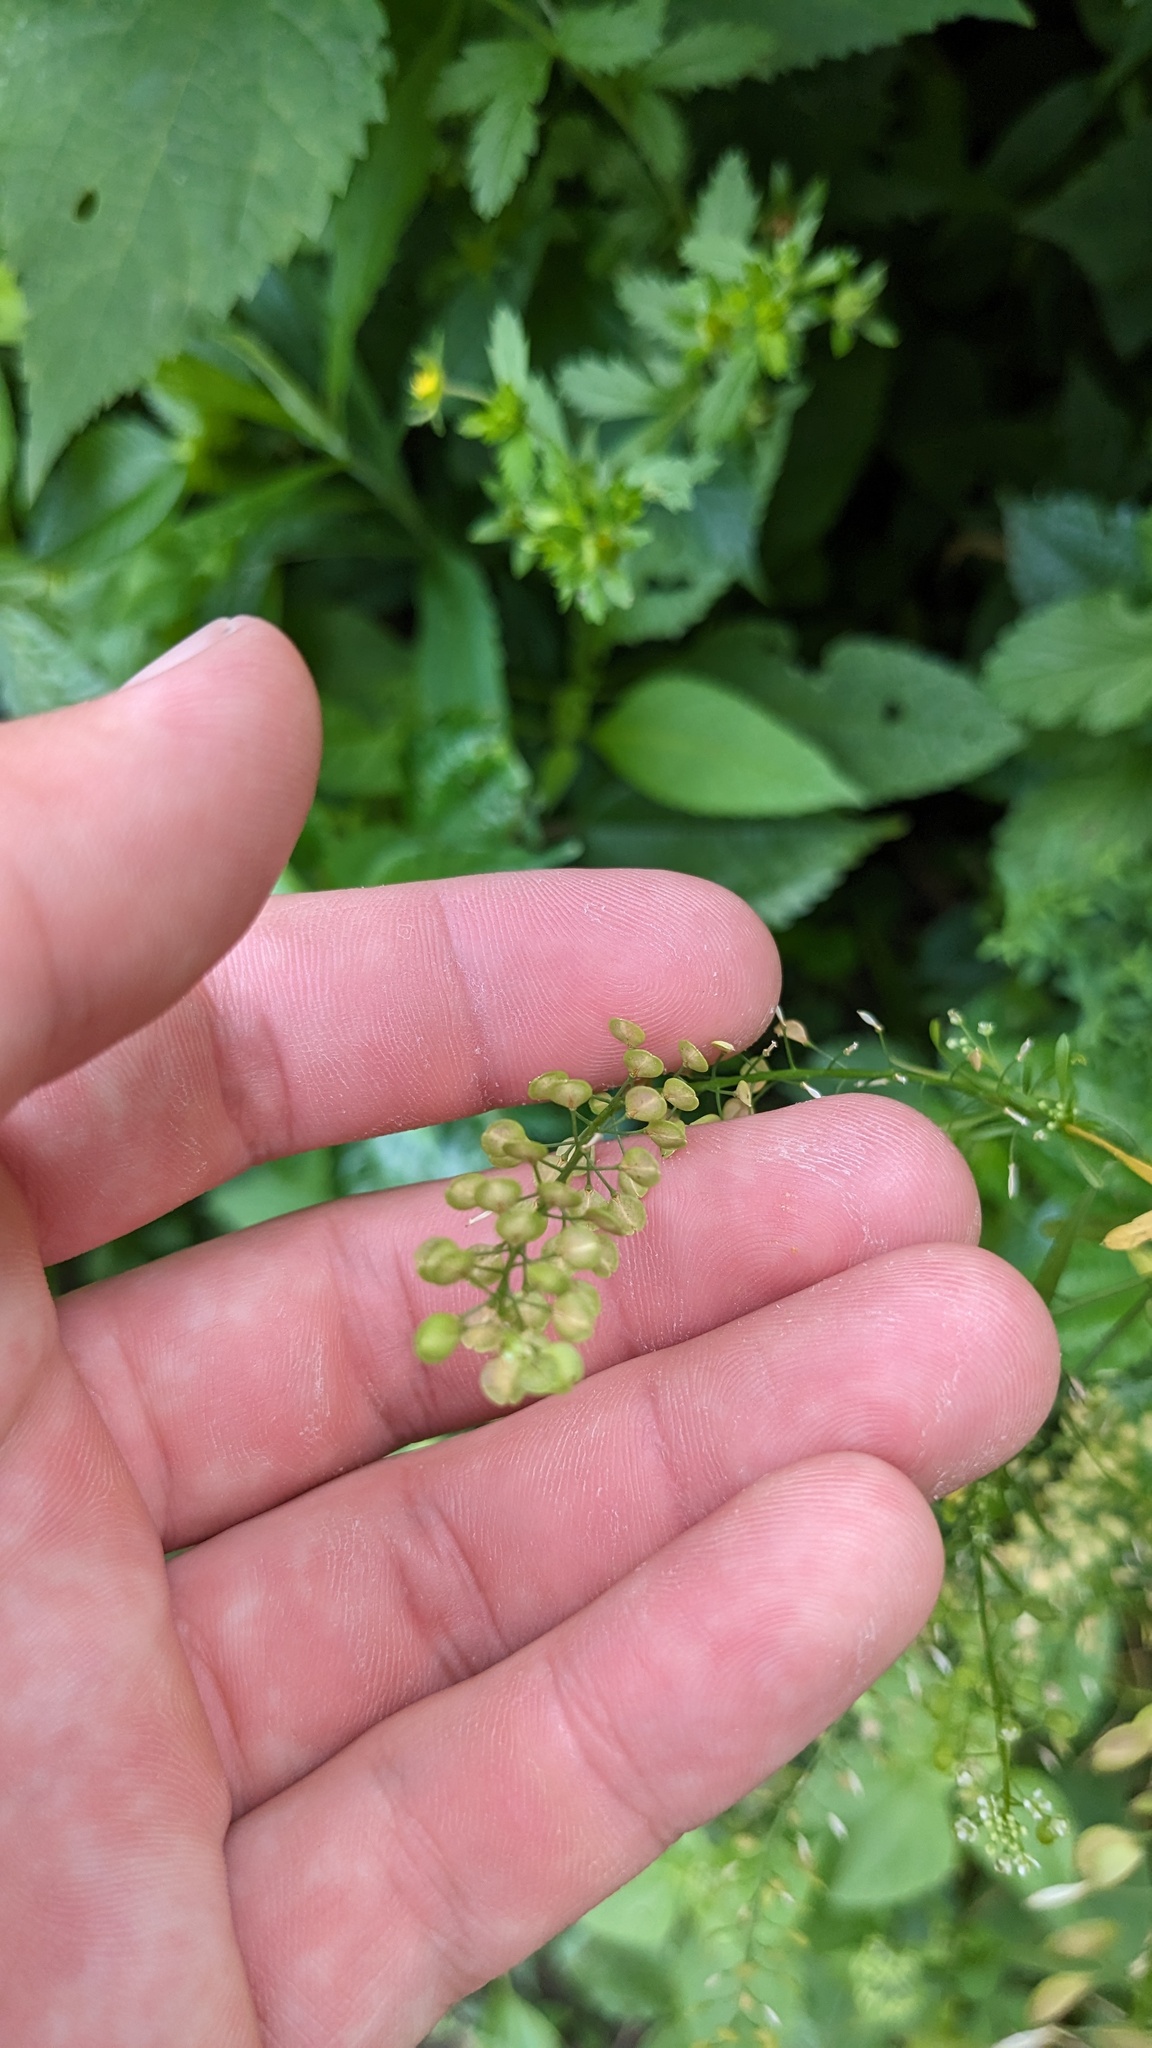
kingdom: Plantae
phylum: Tracheophyta
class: Magnoliopsida
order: Brassicales
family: Brassicaceae
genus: Lepidium
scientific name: Lepidium virginicum
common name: Least pepperwort
